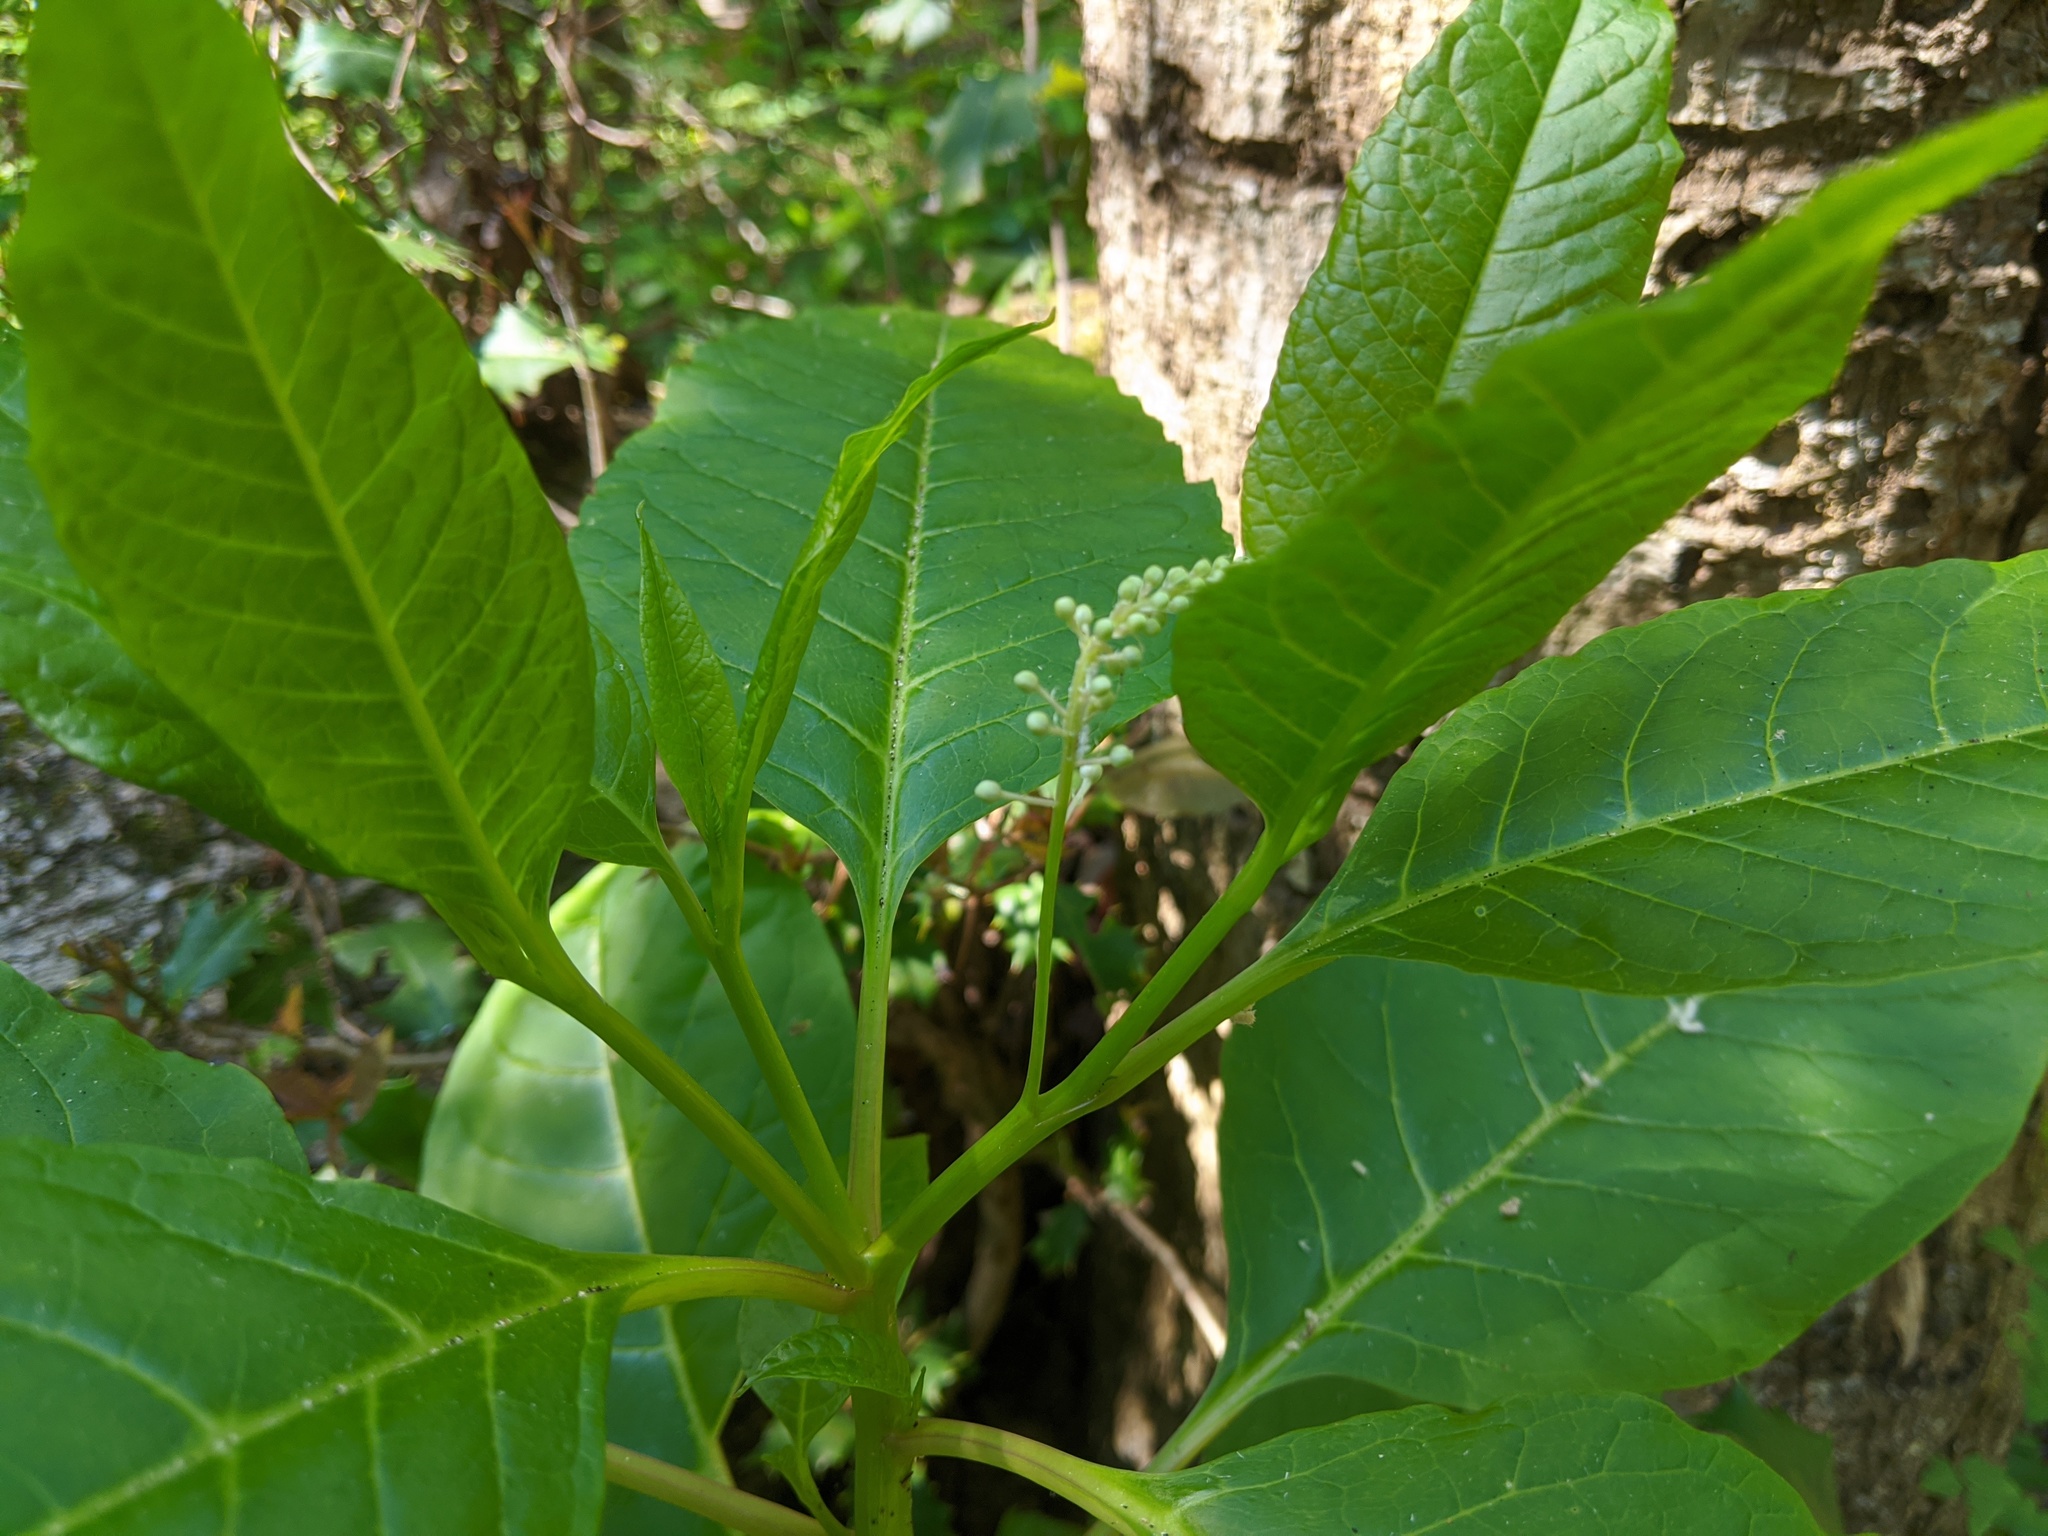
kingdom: Plantae
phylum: Tracheophyta
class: Magnoliopsida
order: Caryophyllales
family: Phytolaccaceae
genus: Phytolacca
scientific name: Phytolacca americana
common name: American pokeweed
